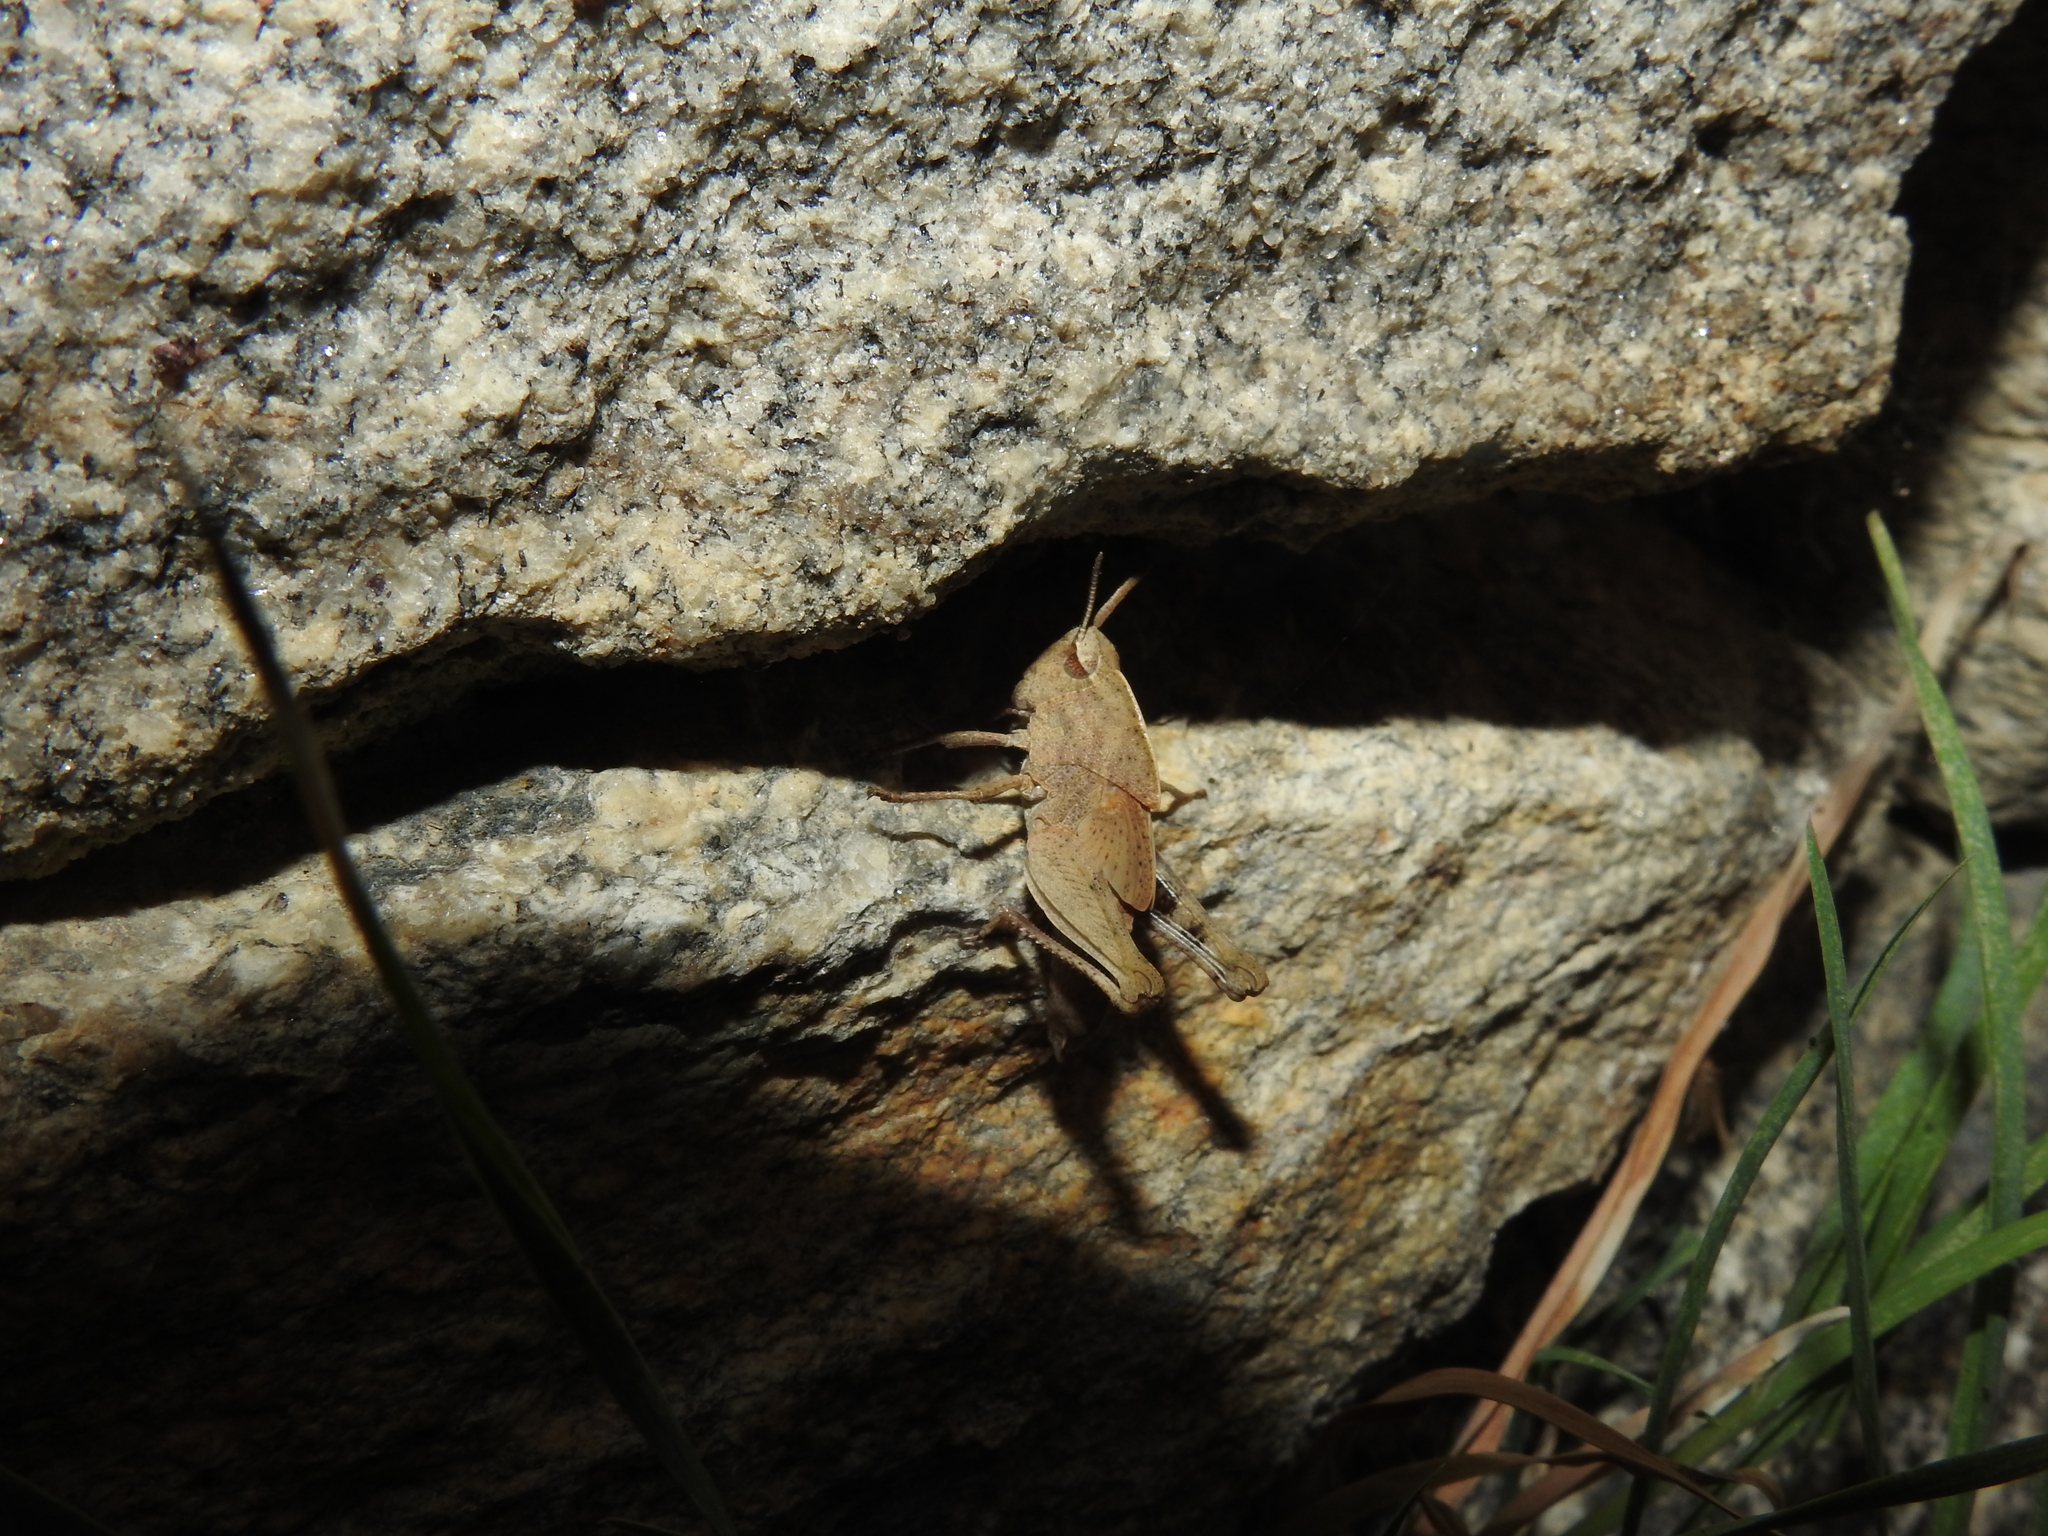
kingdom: Animalia
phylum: Arthropoda
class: Insecta
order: Orthoptera
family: Acrididae
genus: Chortophaga
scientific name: Chortophaga viridifasciata
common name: Green-striped grasshopper
